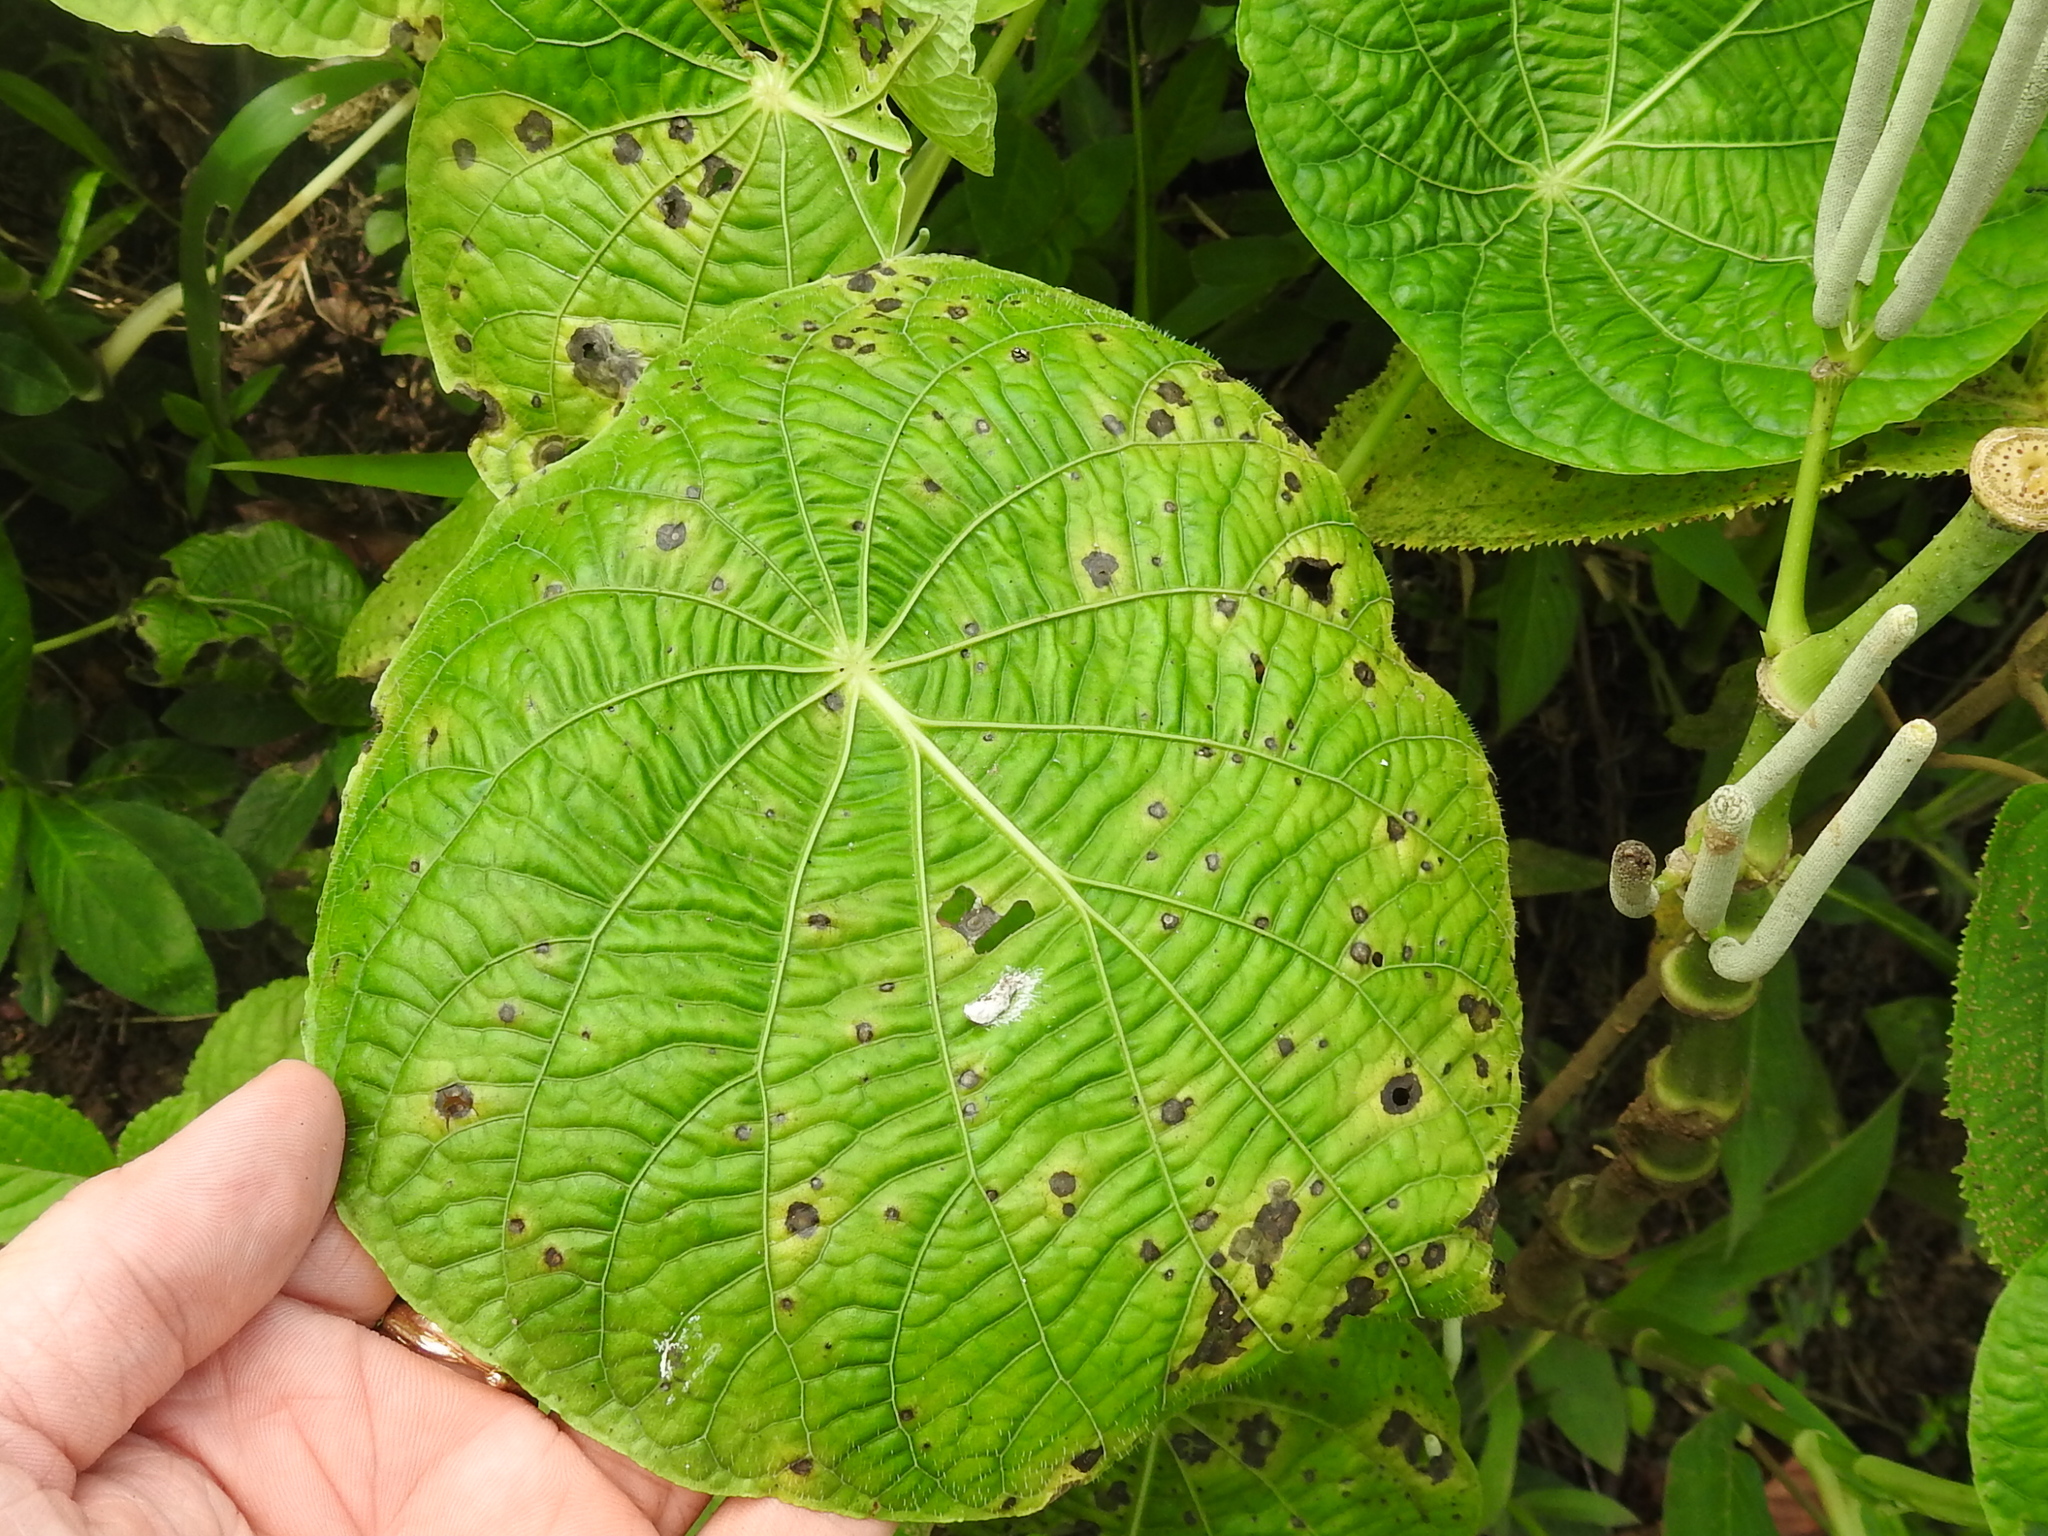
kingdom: Plantae
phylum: Tracheophyta
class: Magnoliopsida
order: Piperales
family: Piperaceae
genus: Piper
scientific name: Piper peltatum
